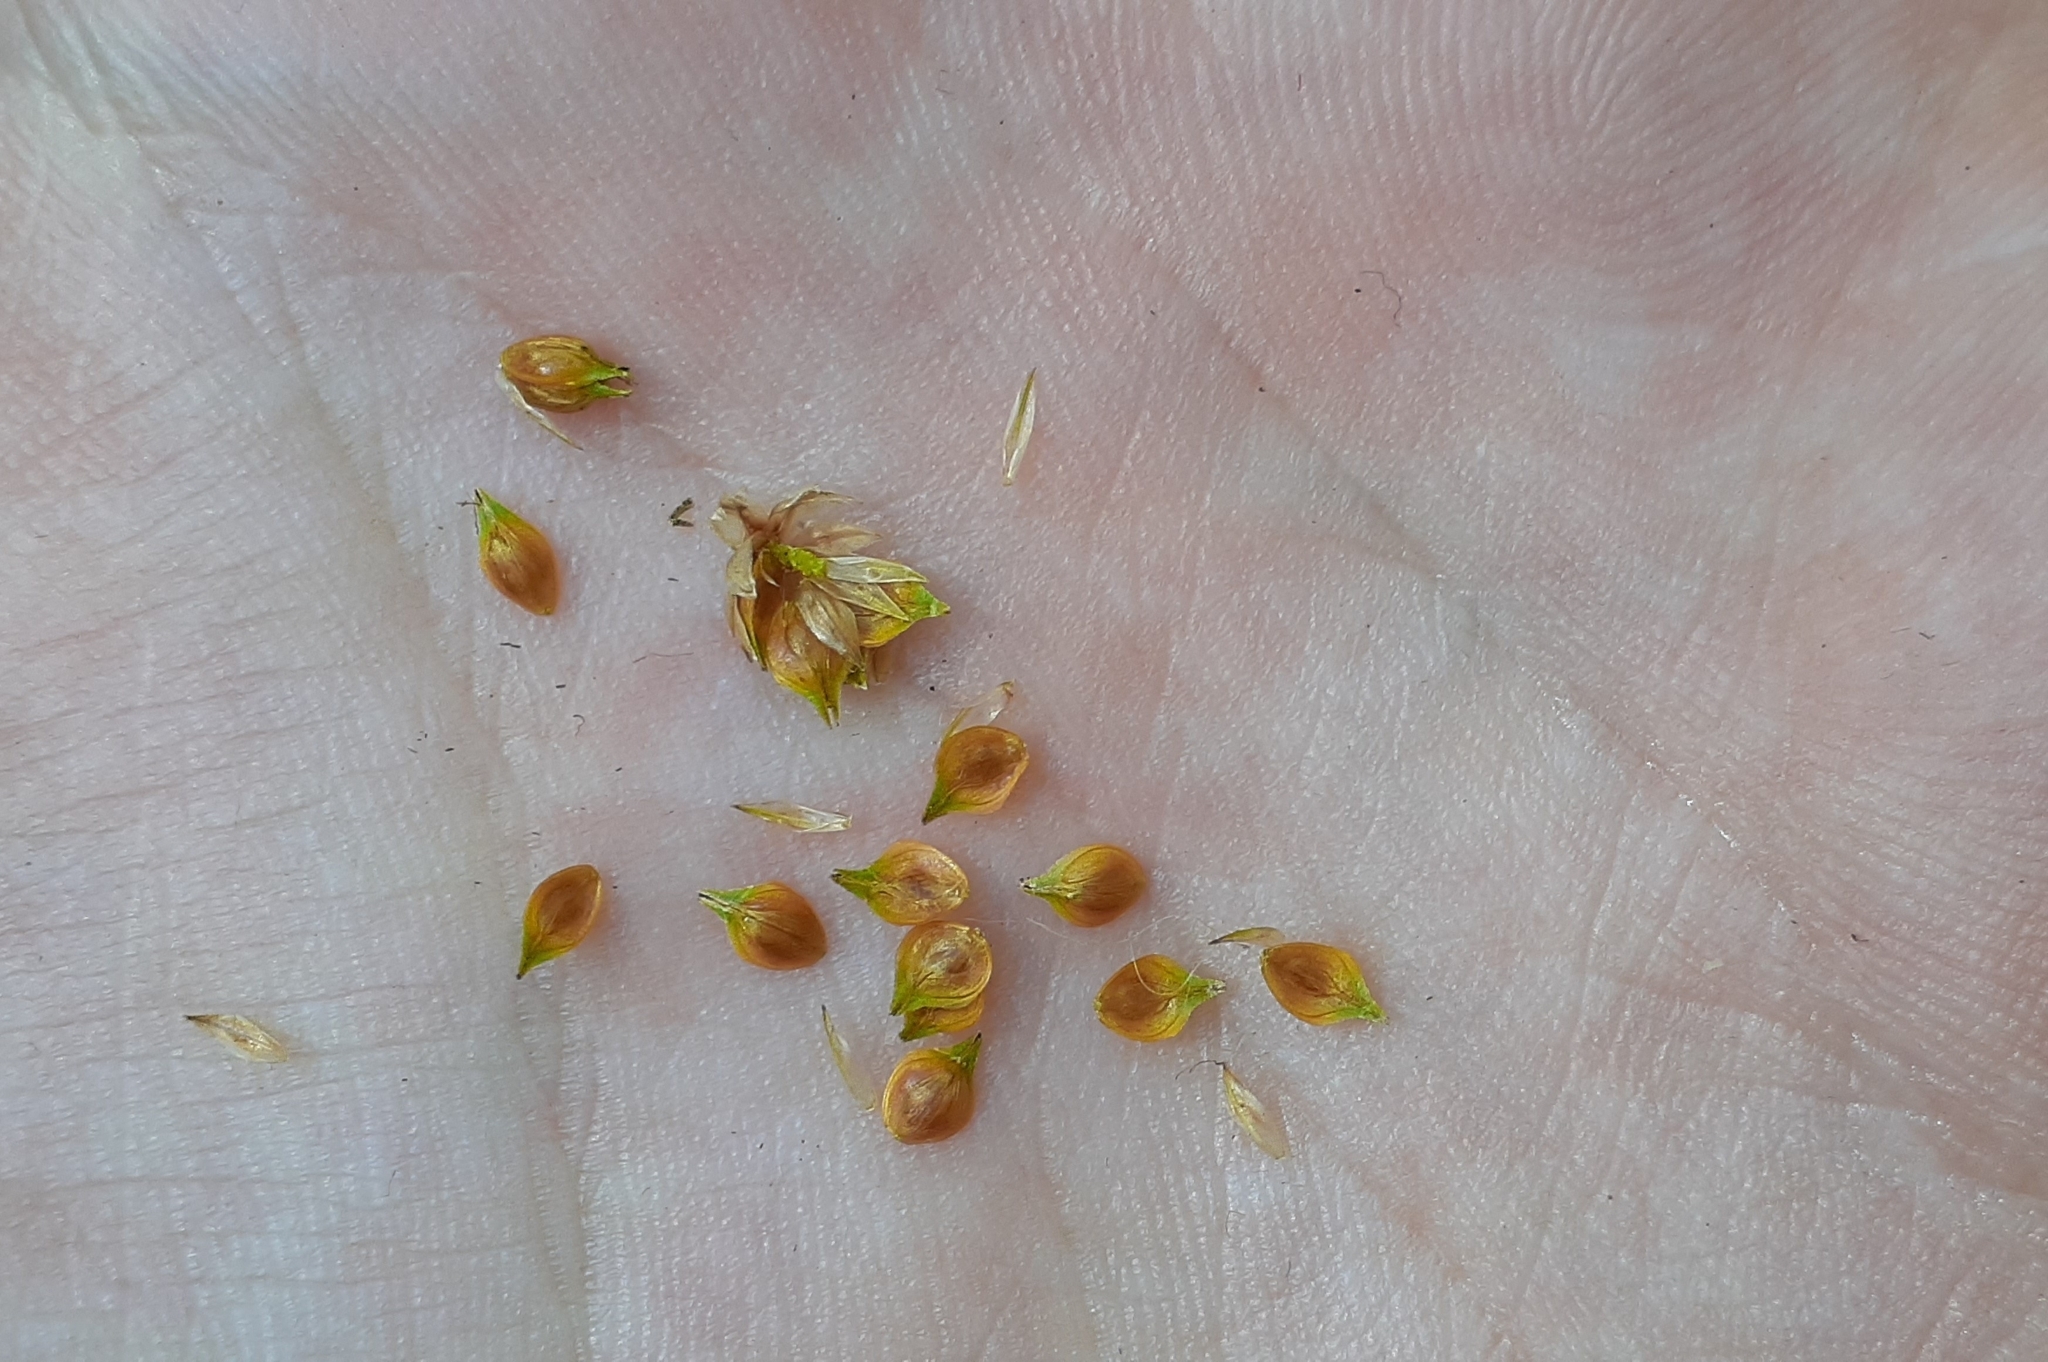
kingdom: Plantae
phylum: Tracheophyta
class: Liliopsida
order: Poales
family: Cyperaceae
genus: Carex
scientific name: Carex cumulata
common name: Accumulating sedge
